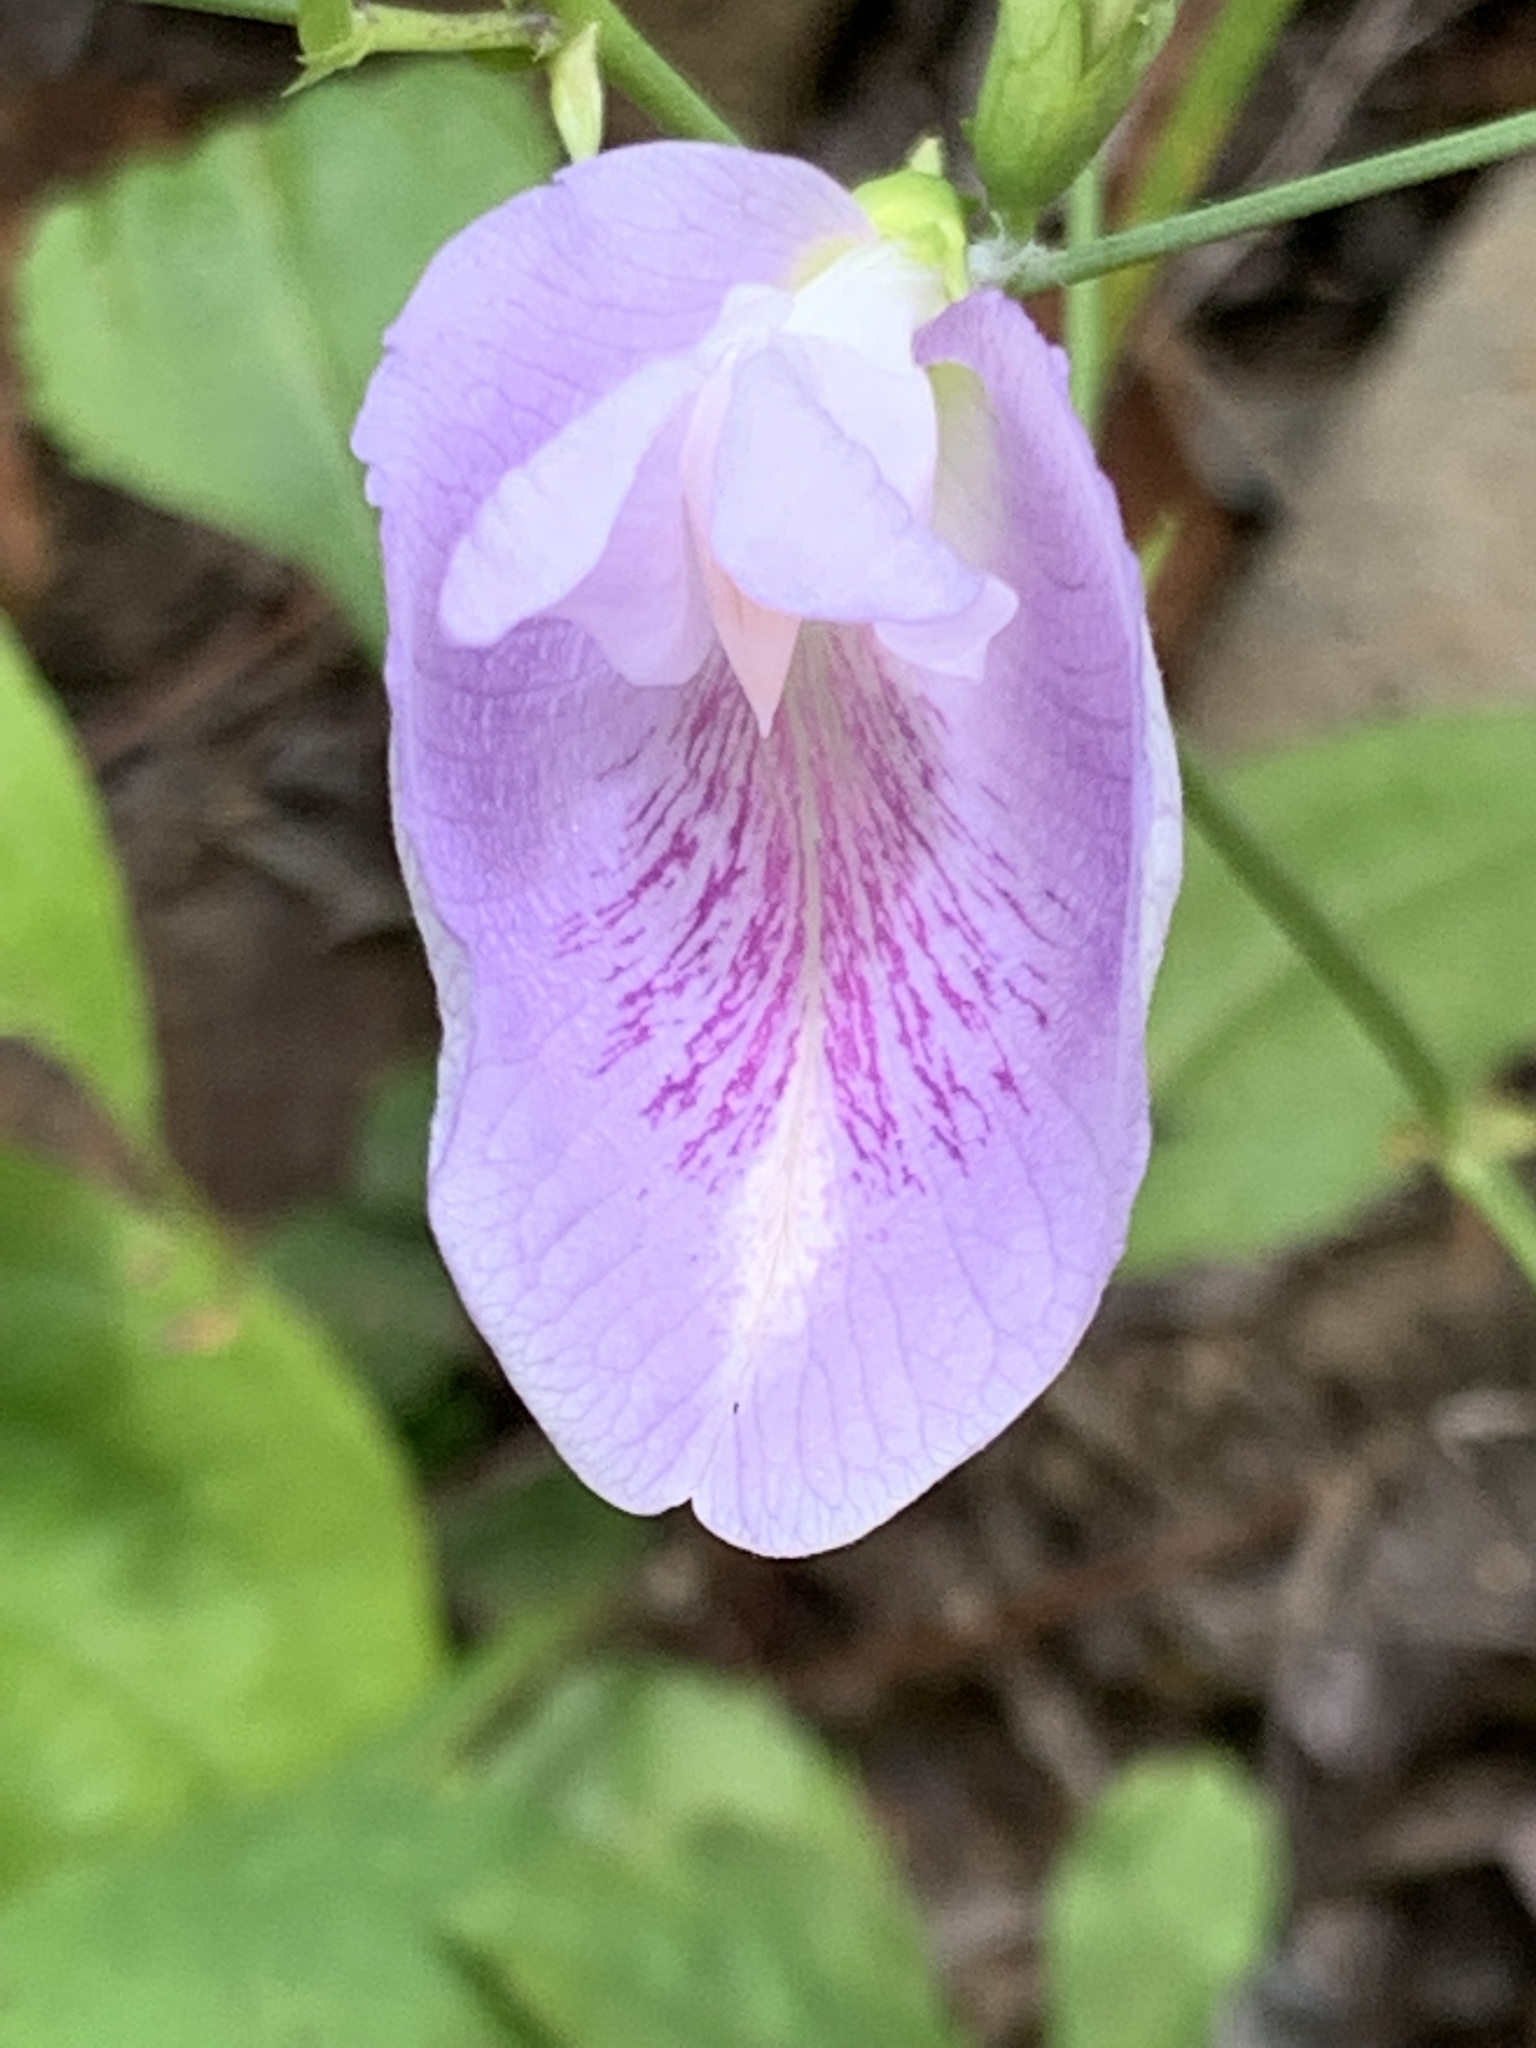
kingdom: Plantae
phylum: Tracheophyta
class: Magnoliopsida
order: Fabales
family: Fabaceae
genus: Clitoria
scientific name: Clitoria mariana
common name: Butterfly-pea
